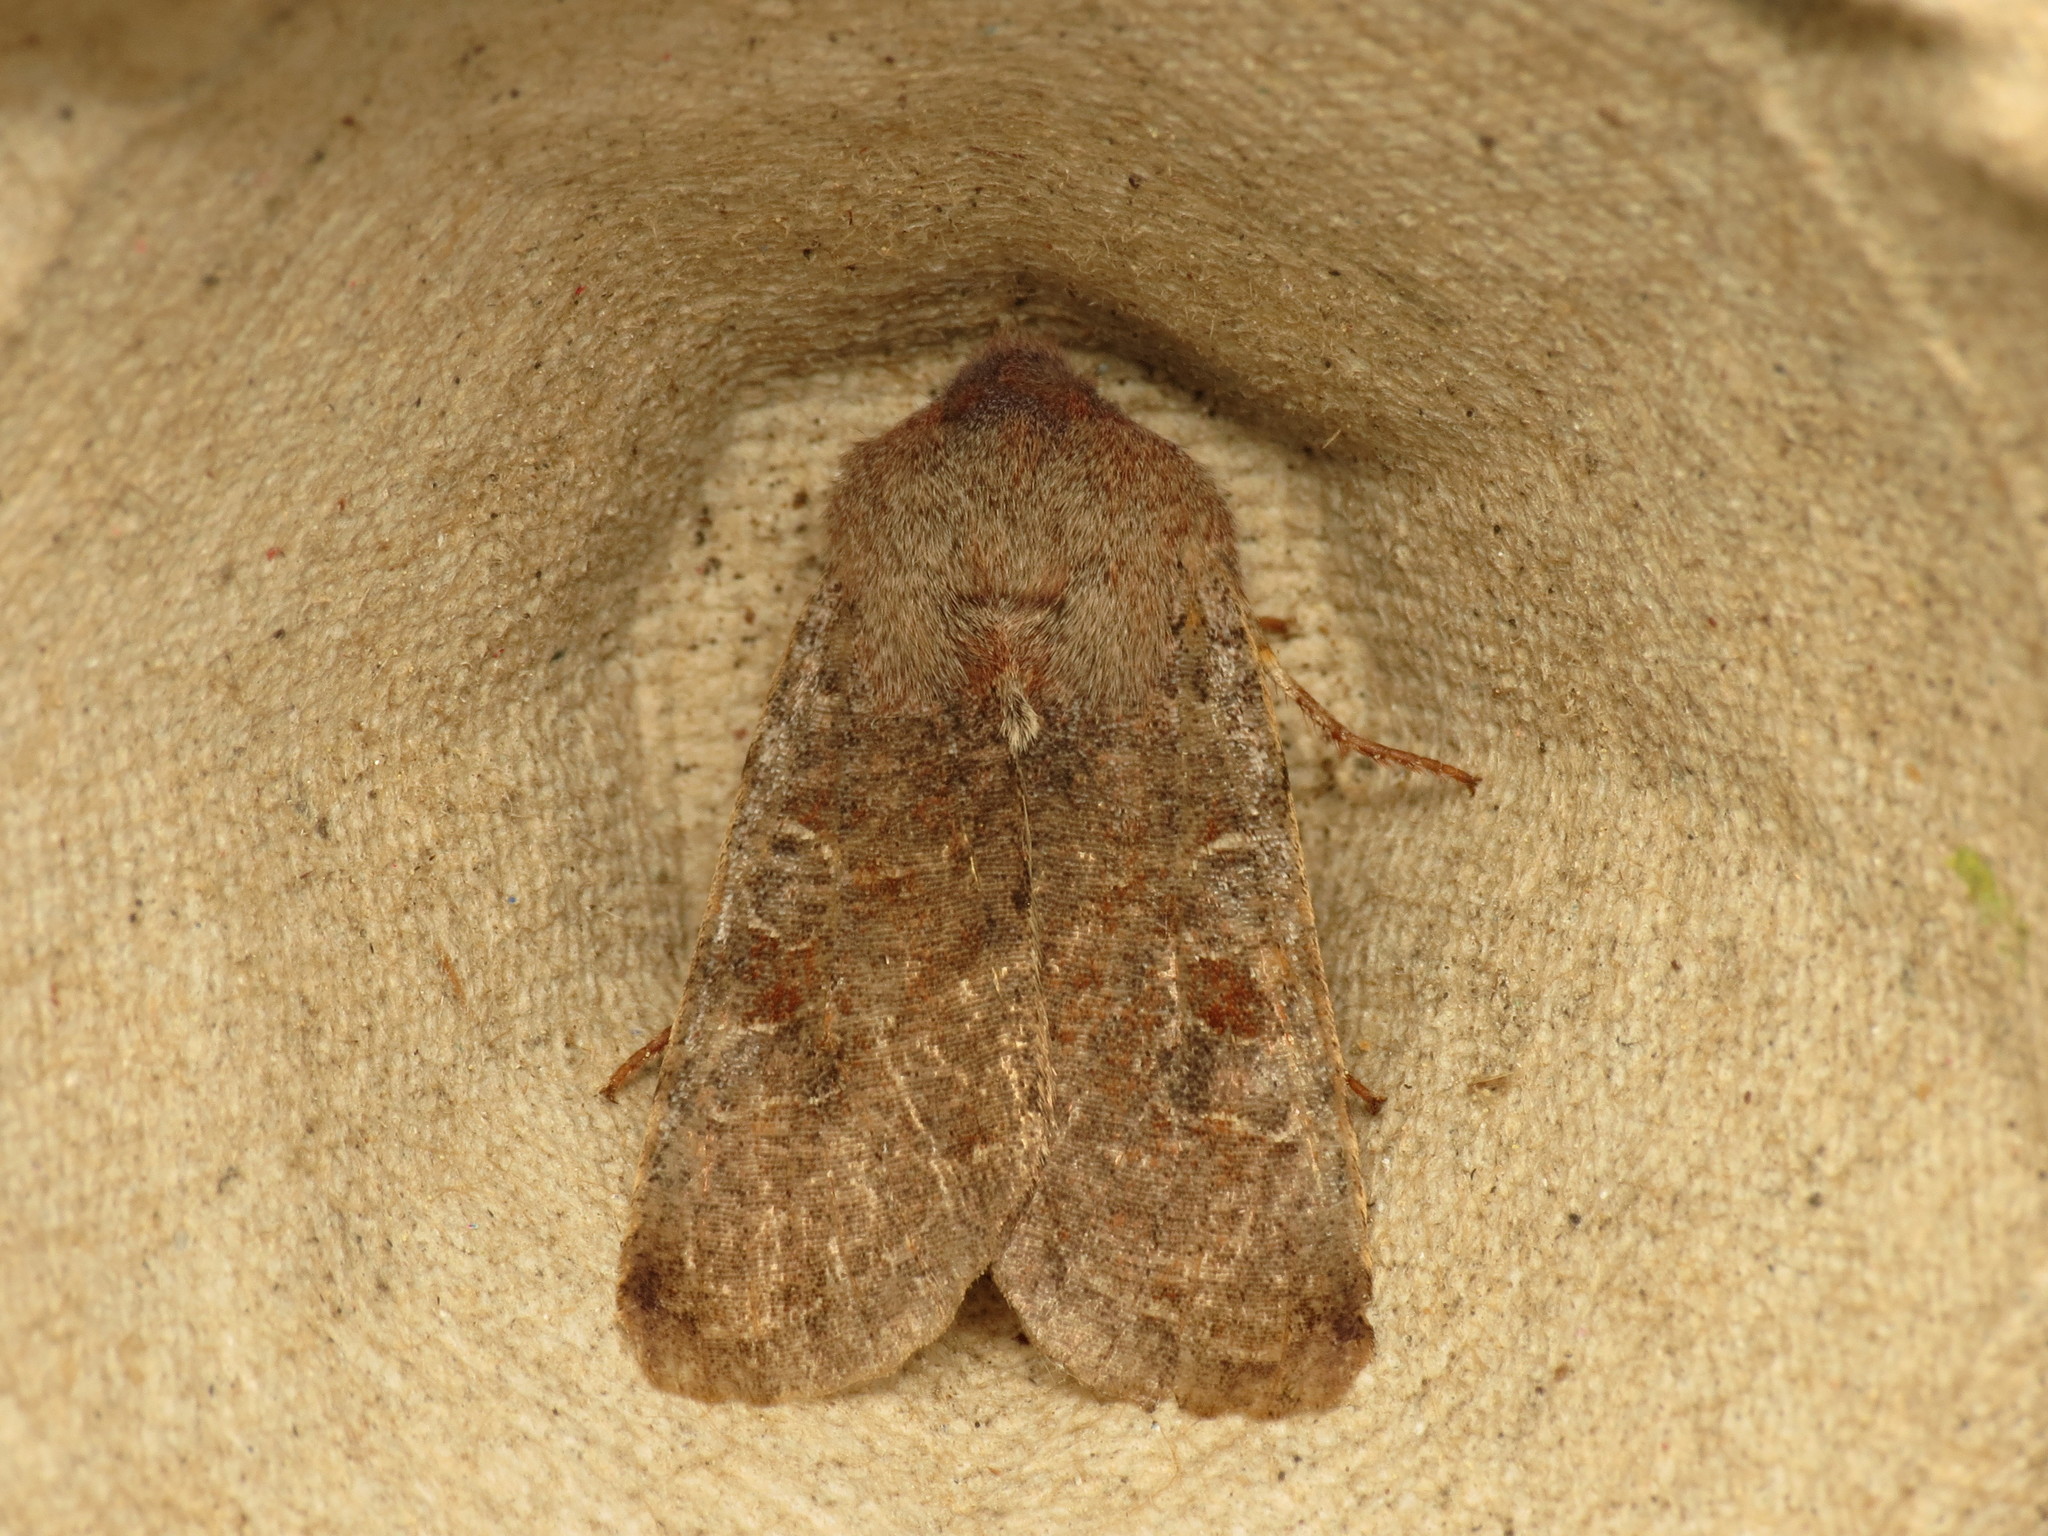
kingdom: Animalia
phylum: Arthropoda
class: Insecta
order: Lepidoptera
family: Noctuidae
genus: Orthosia
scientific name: Orthosia incerta
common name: Clouded drab
